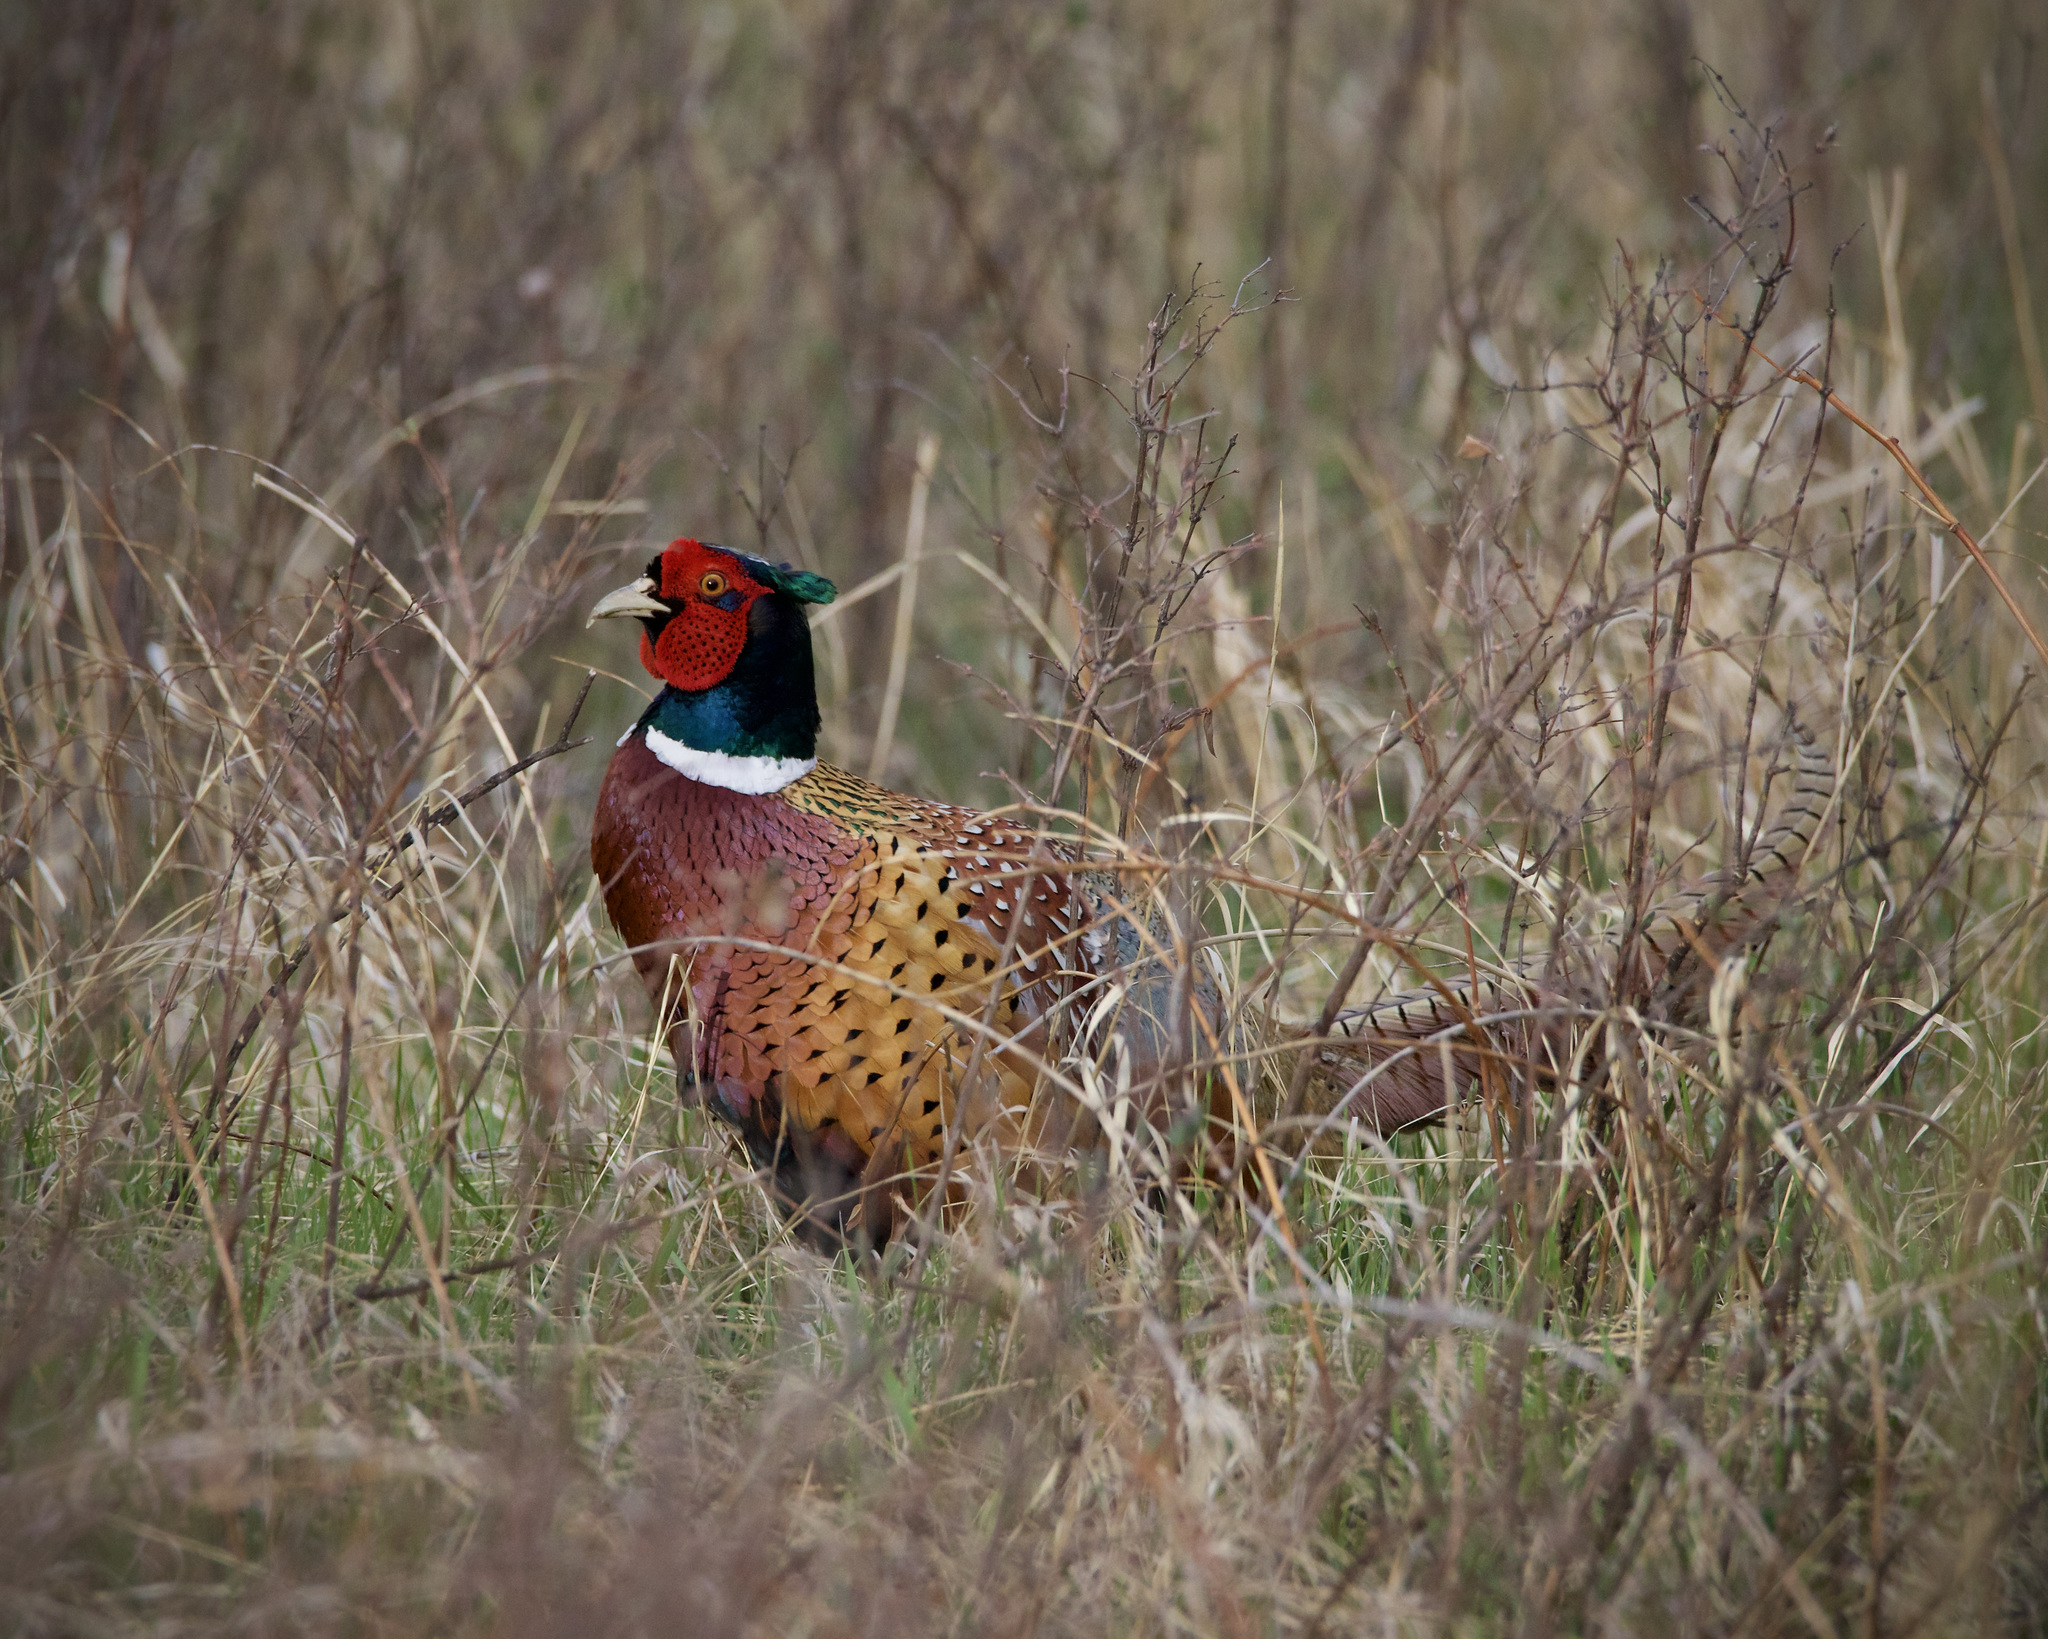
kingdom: Animalia
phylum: Chordata
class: Aves
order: Galliformes
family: Phasianidae
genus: Phasianus
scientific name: Phasianus colchicus
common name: Common pheasant
